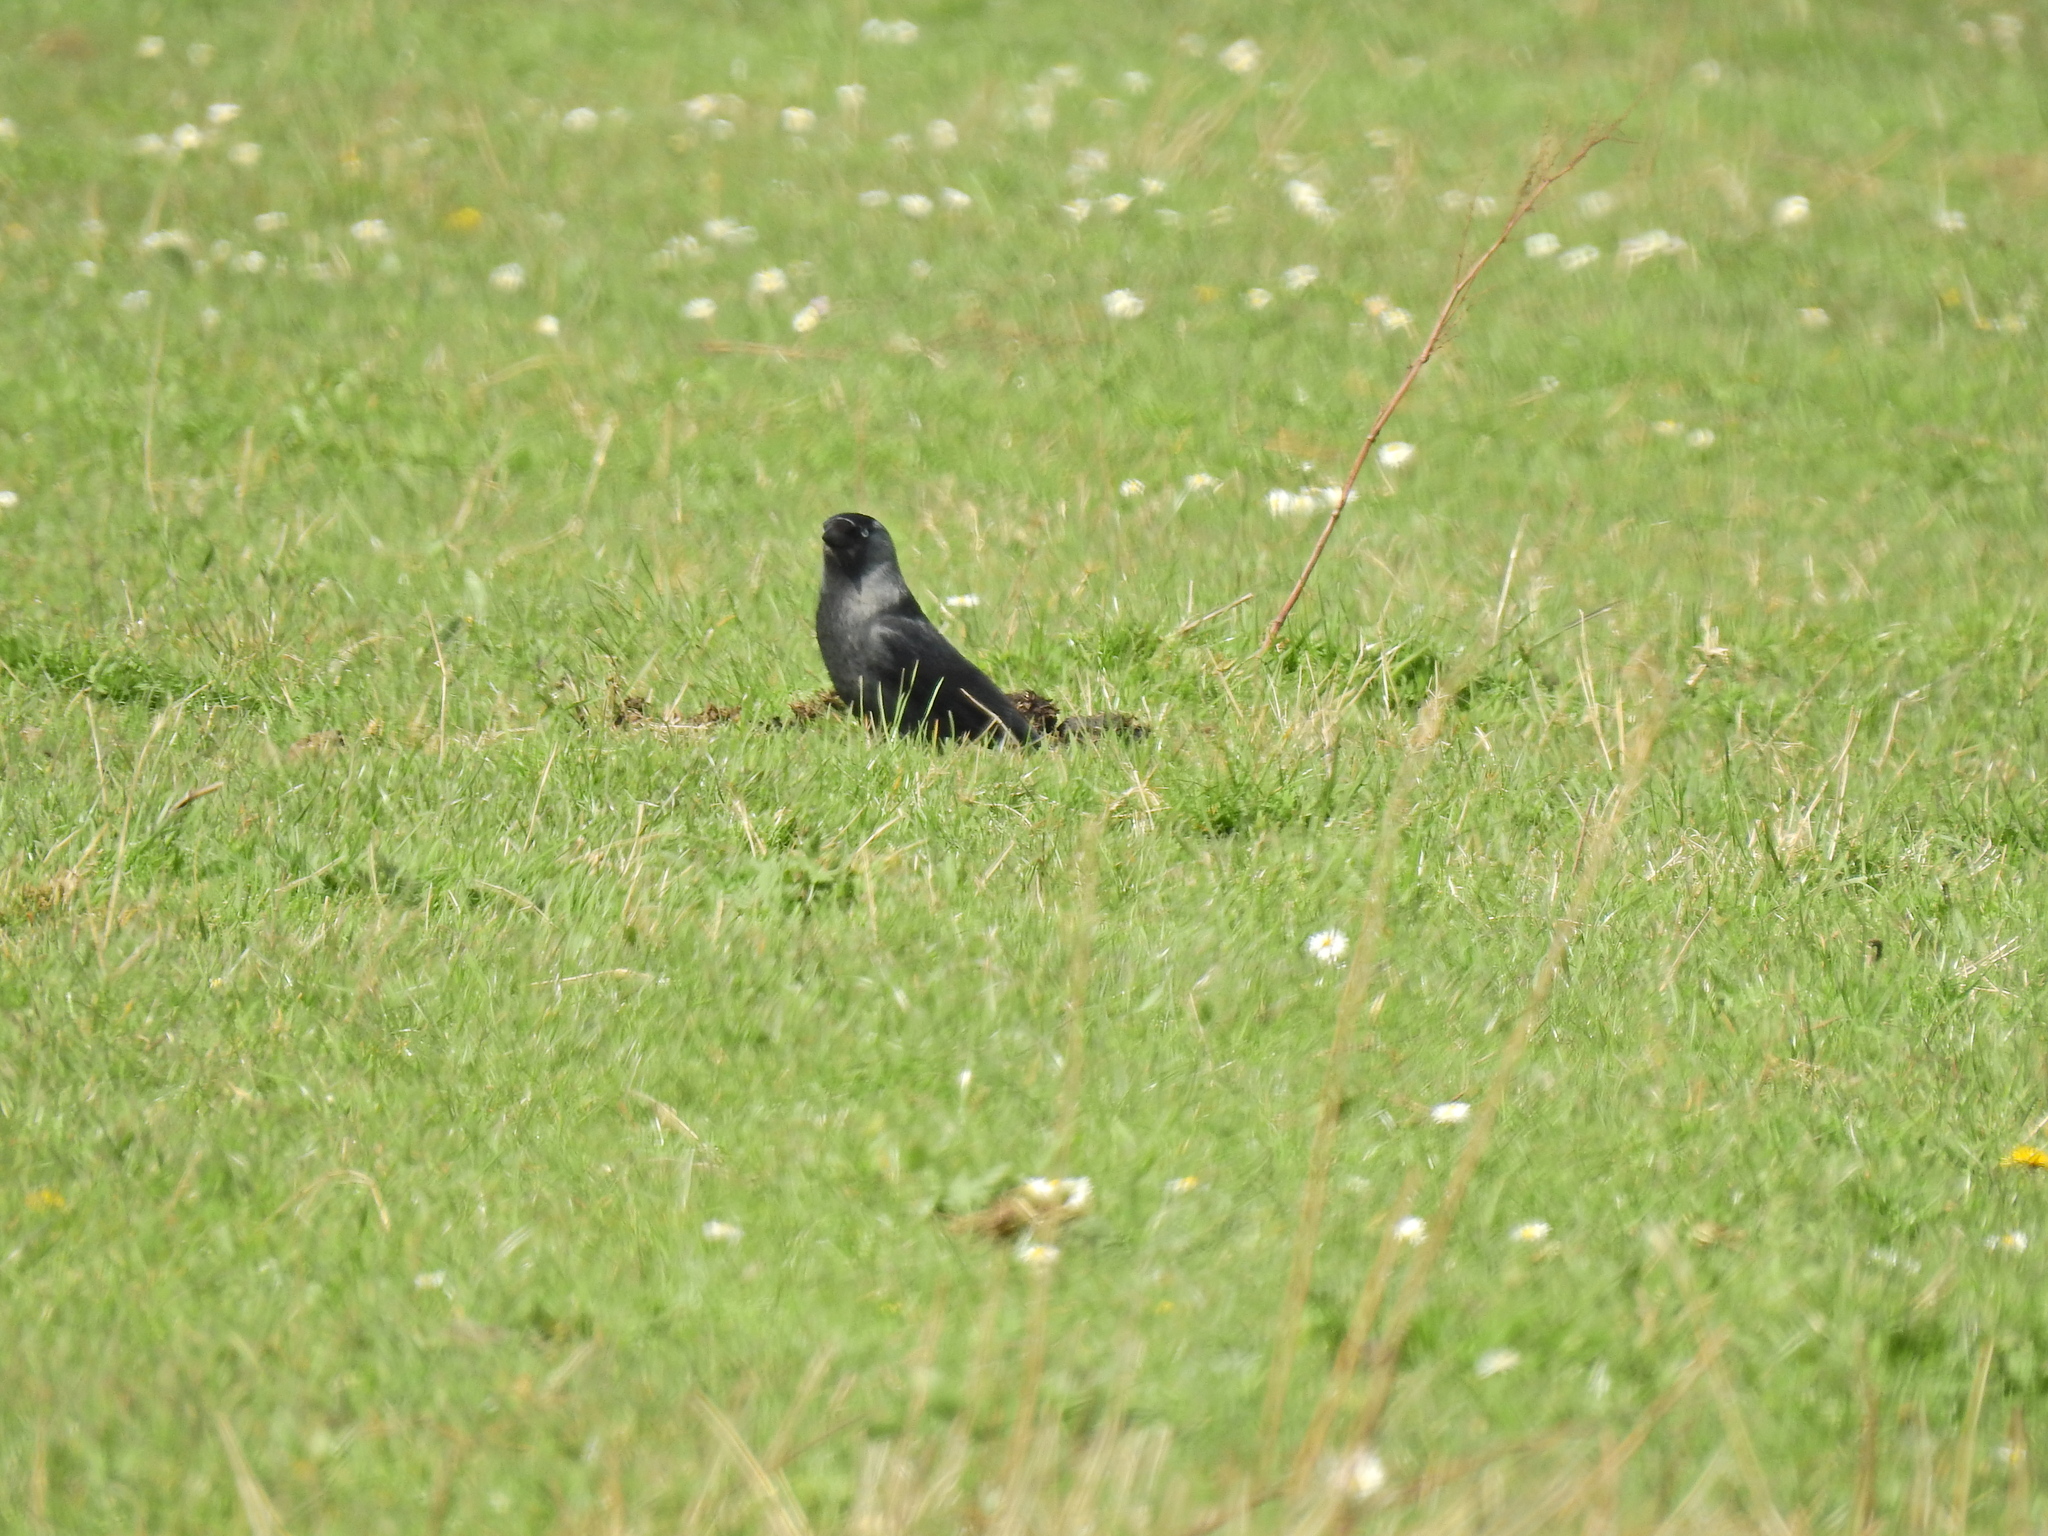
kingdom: Animalia
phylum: Chordata
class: Aves
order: Passeriformes
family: Corvidae
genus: Coloeus
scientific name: Coloeus monedula
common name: Western jackdaw
